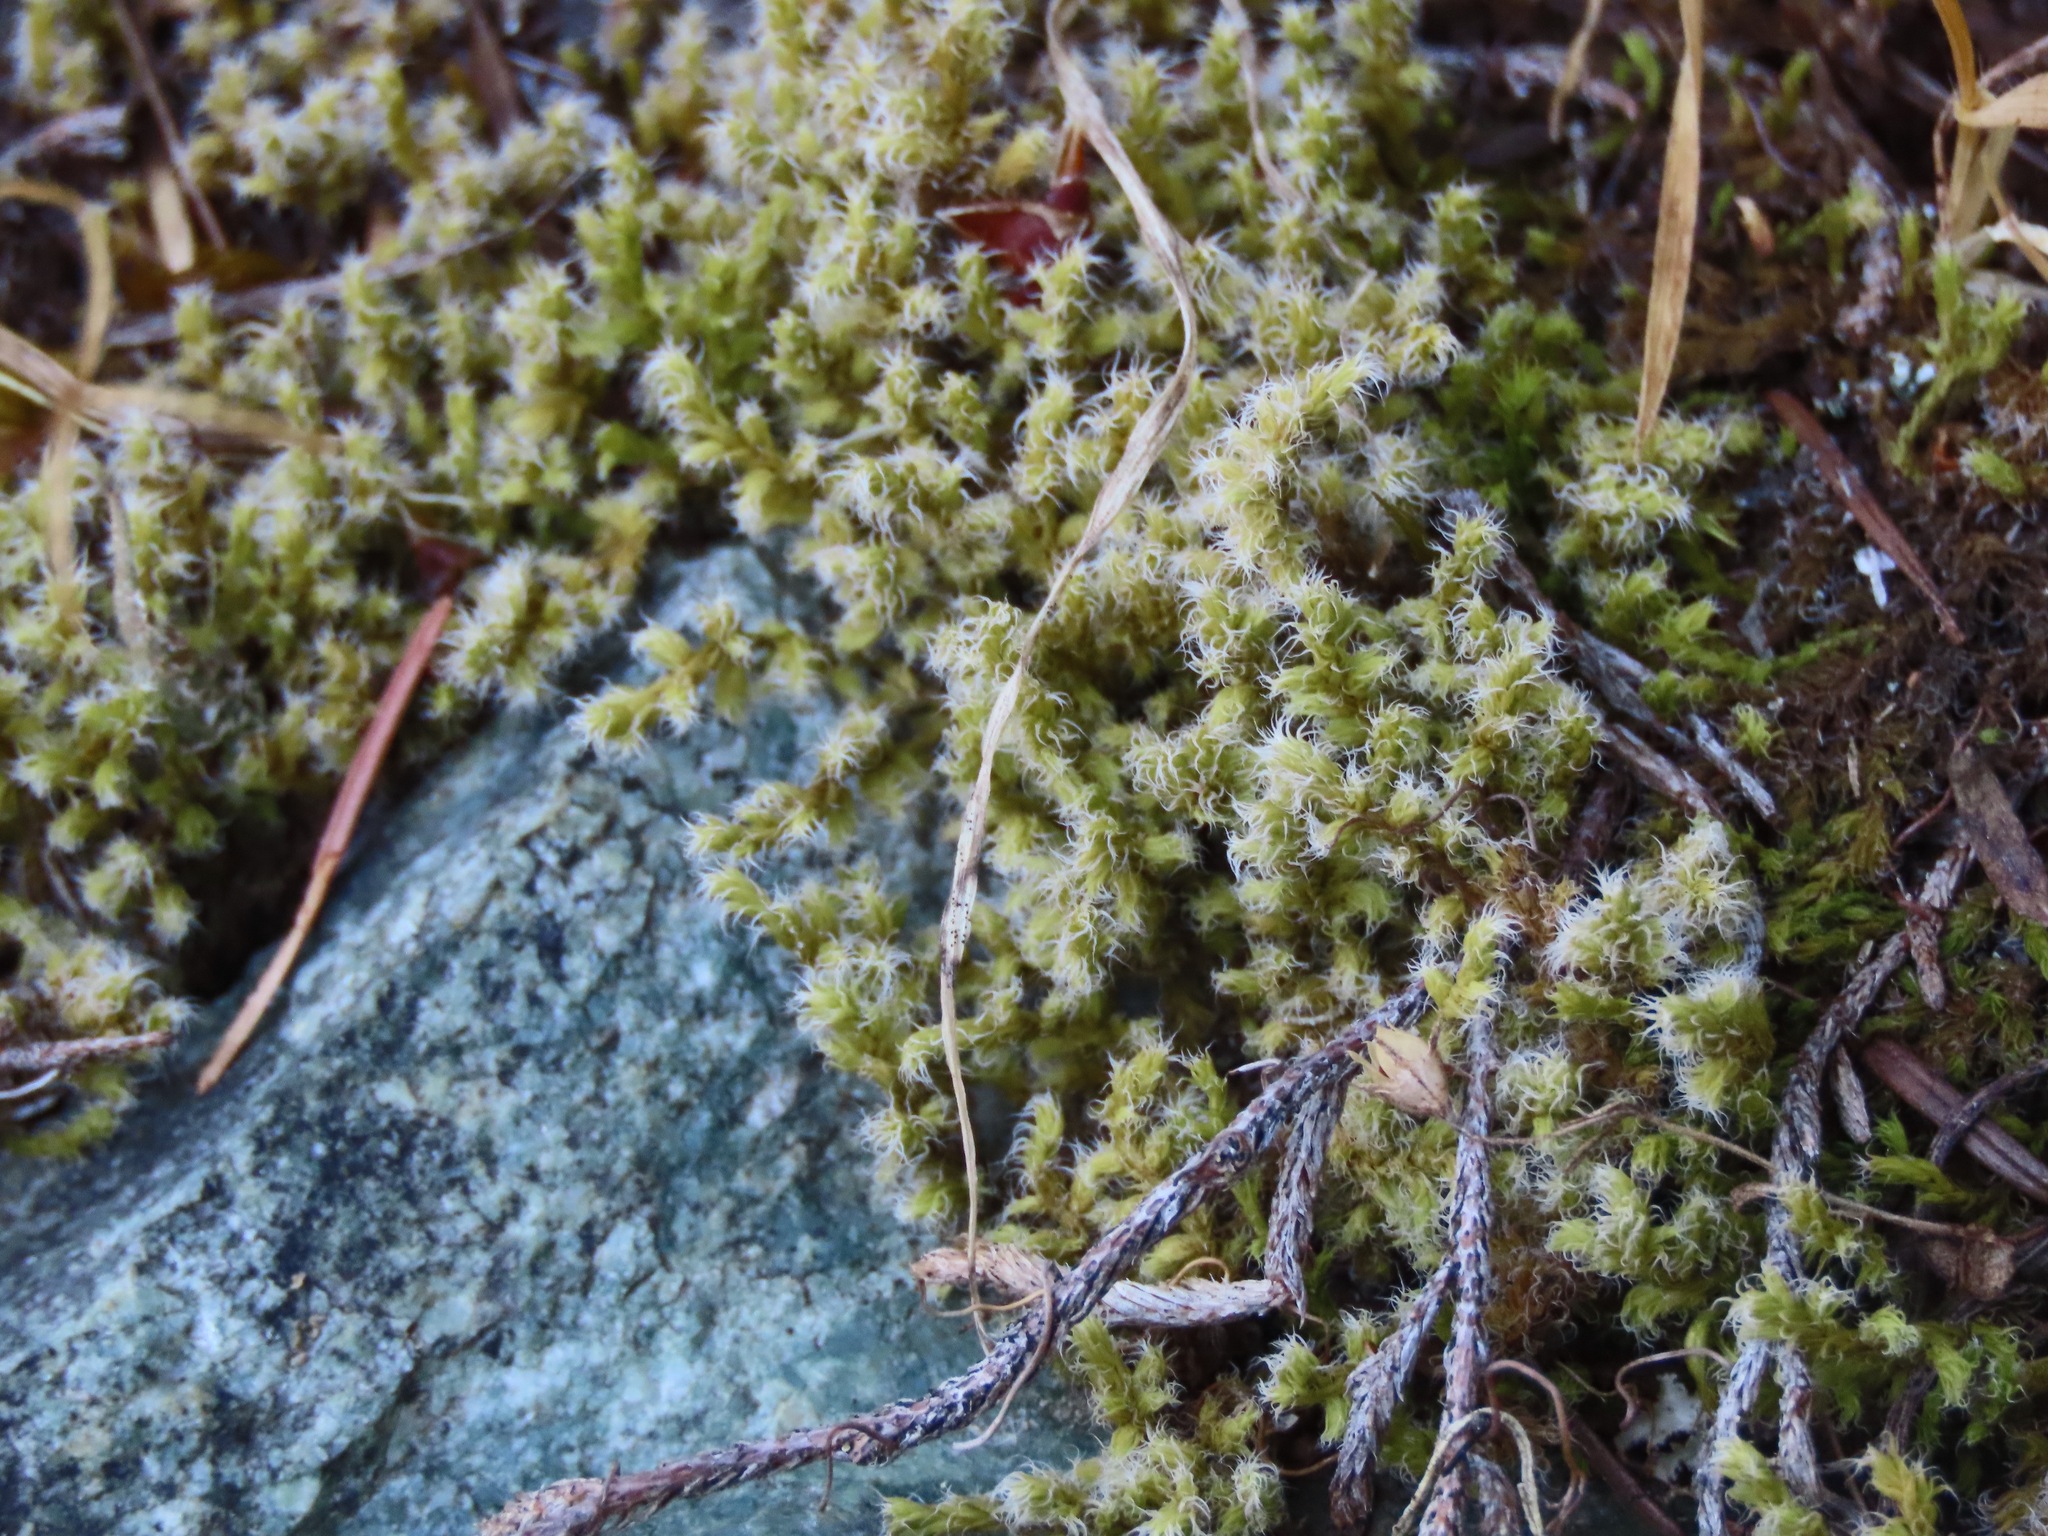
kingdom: Plantae
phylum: Bryophyta
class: Bryopsida
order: Grimmiales
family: Grimmiaceae
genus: Niphotrichum
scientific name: Niphotrichum elongatum
